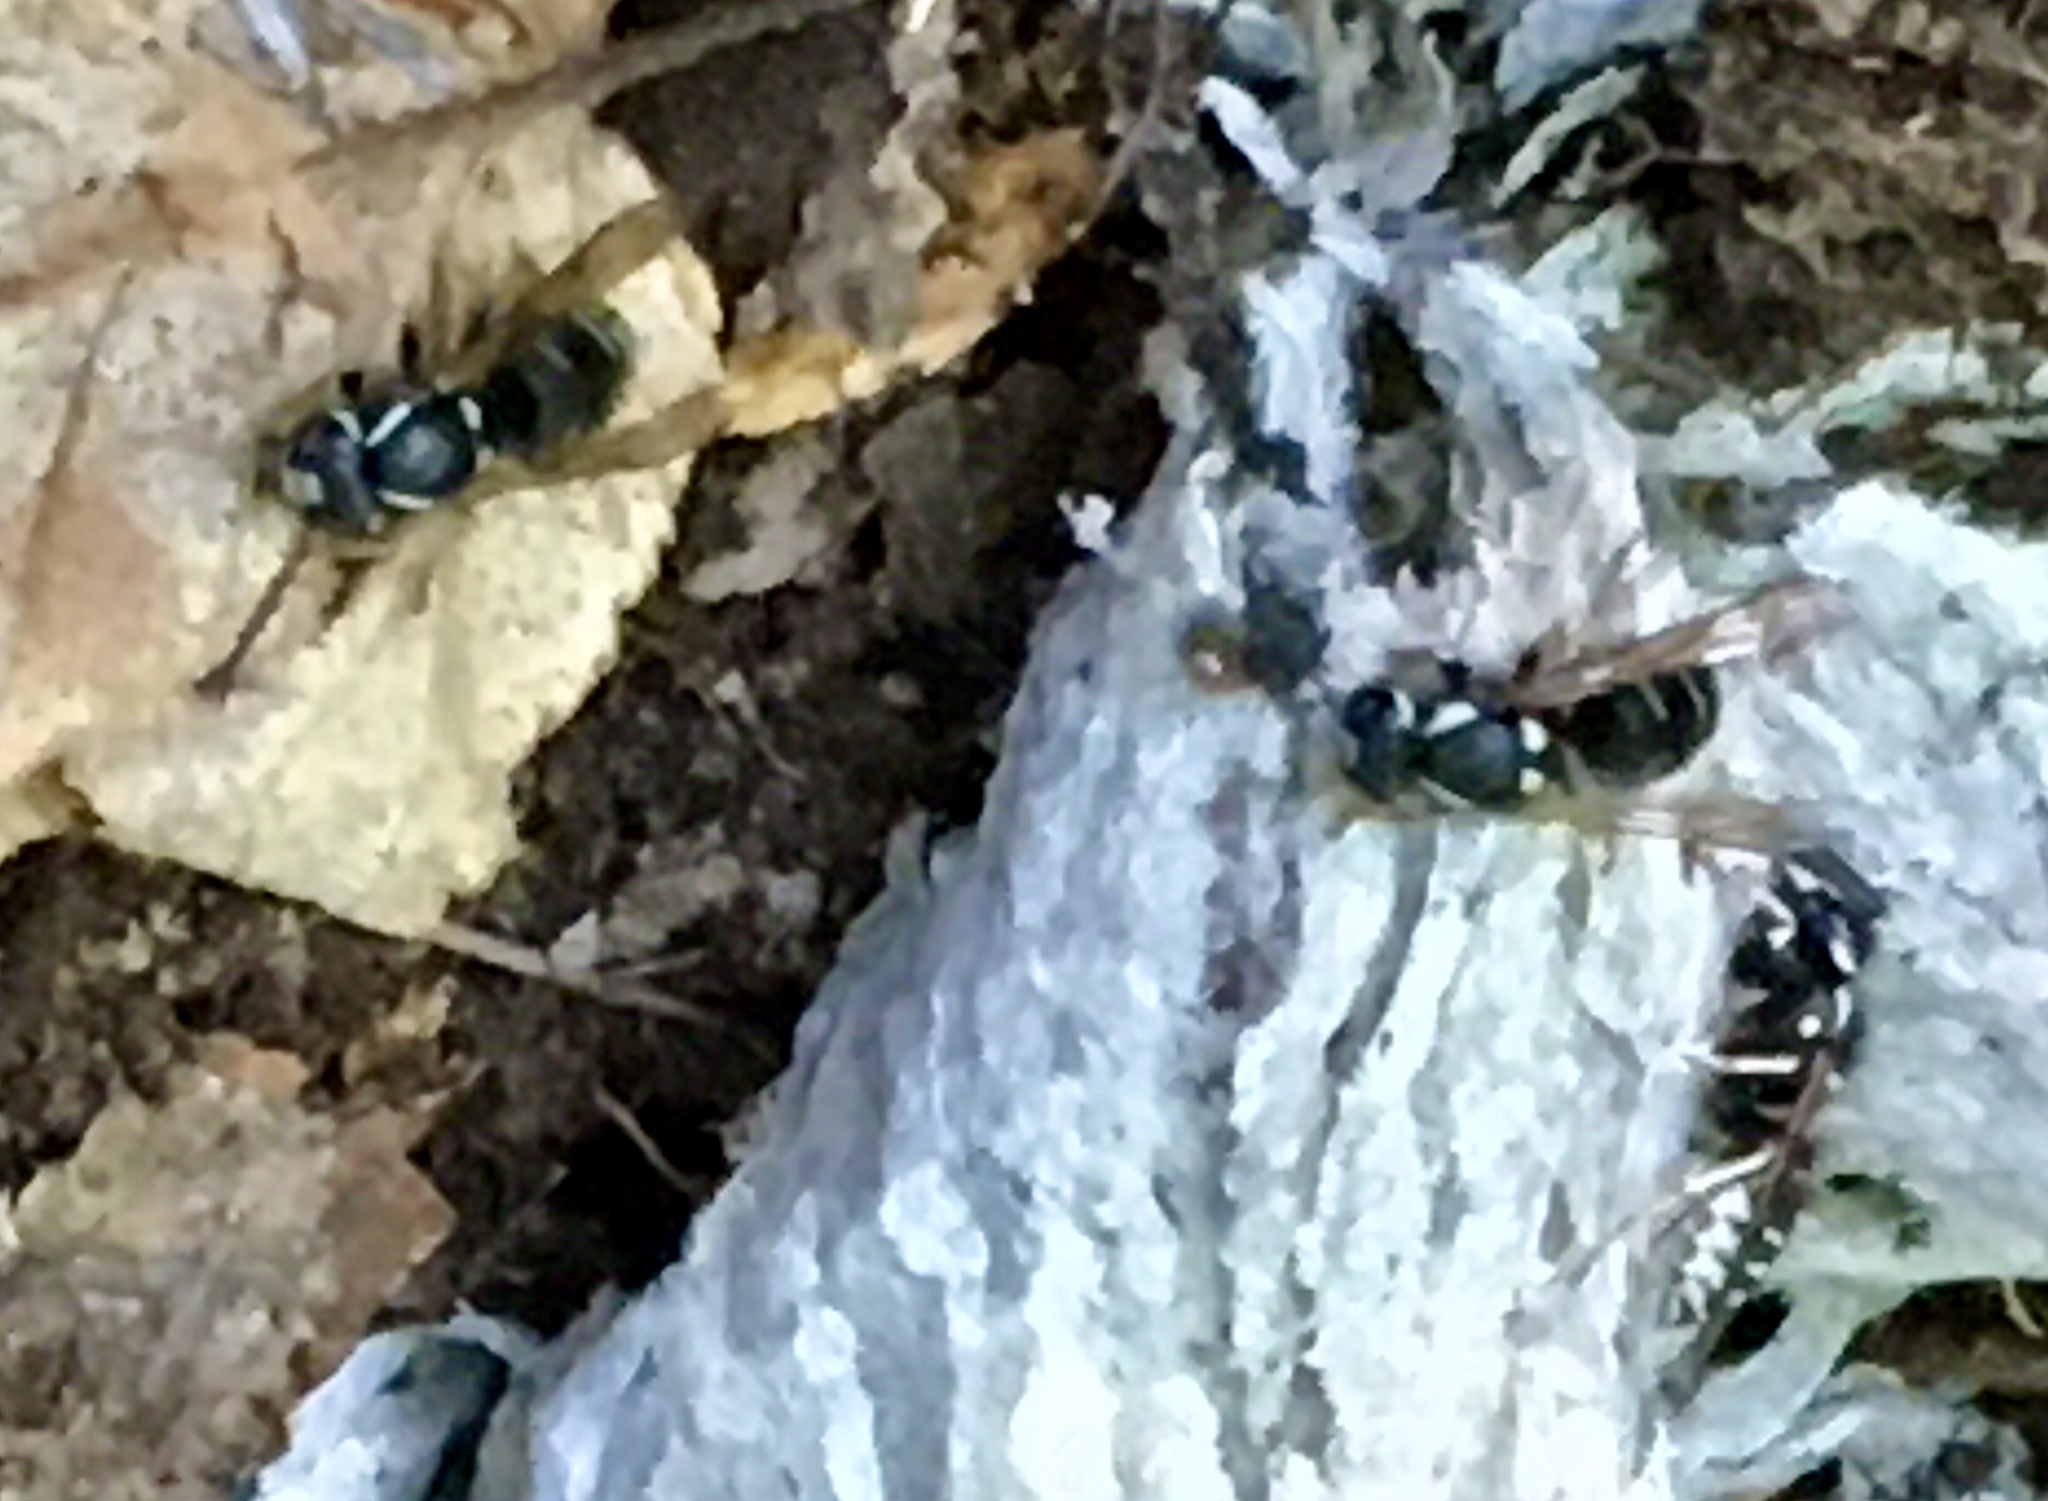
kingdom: Animalia
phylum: Arthropoda
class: Insecta
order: Hymenoptera
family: Vespidae
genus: Vespula
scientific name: Vespula consobrina
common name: Blackjacket
